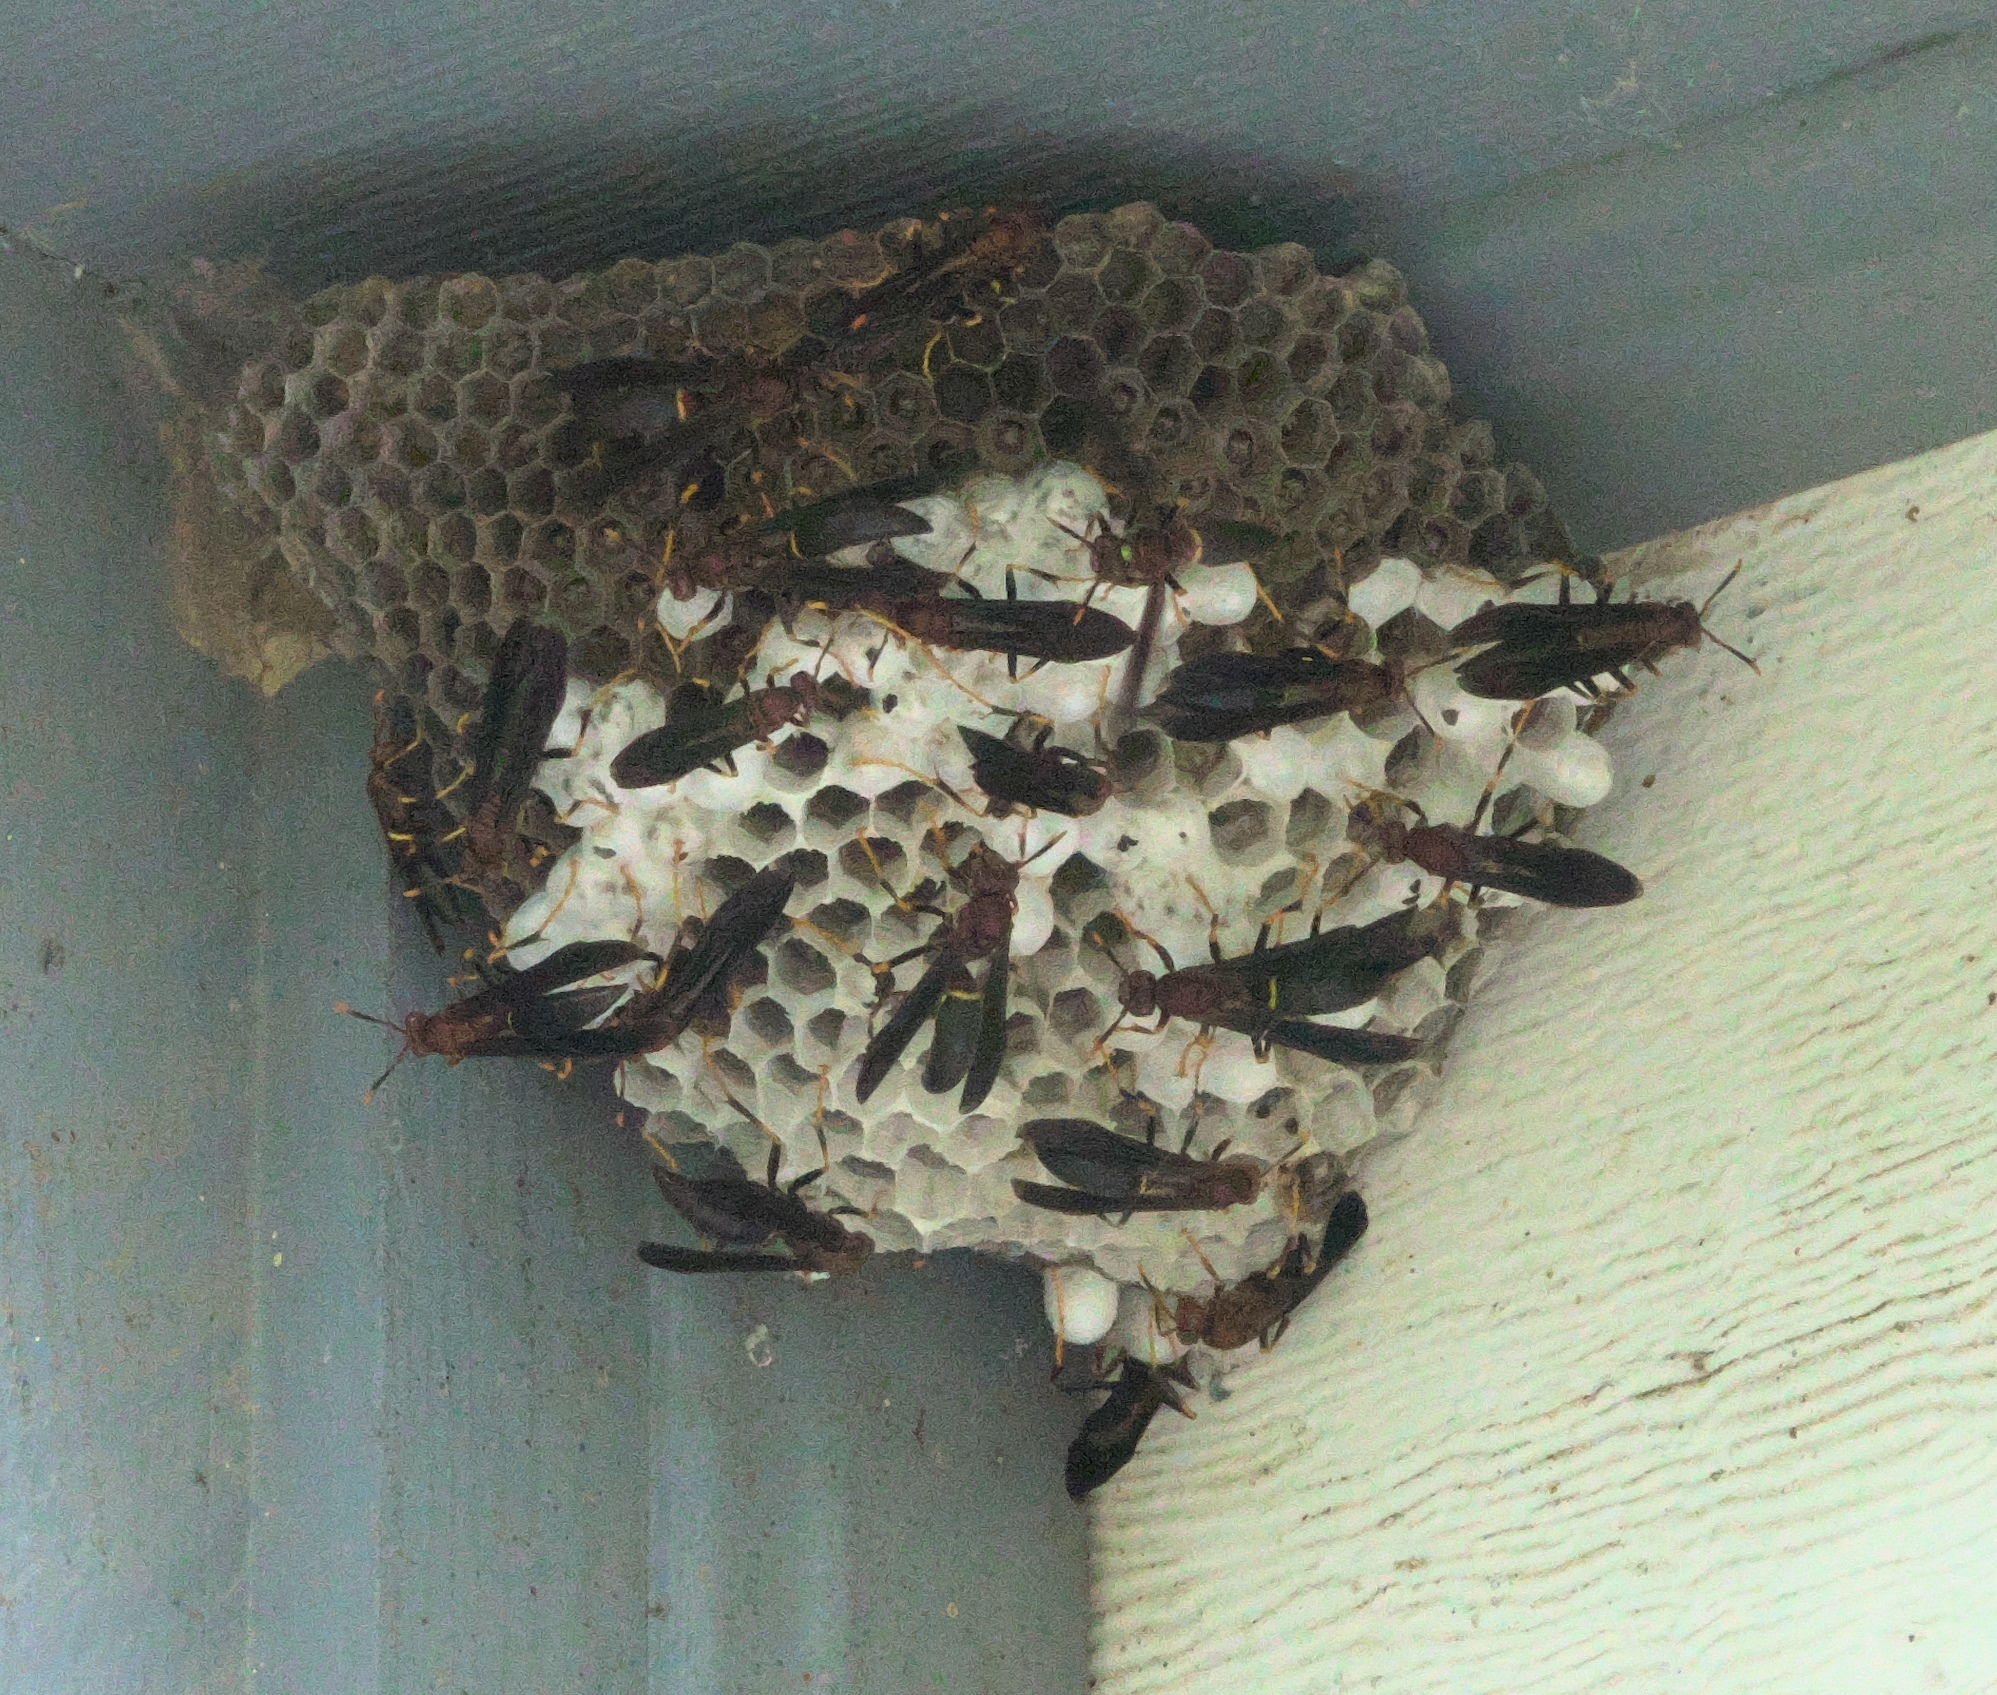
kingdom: Animalia
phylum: Arthropoda
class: Insecta
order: Hymenoptera
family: Eumenidae
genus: Polistes
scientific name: Polistes annularis
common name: Ringed paper wasp
